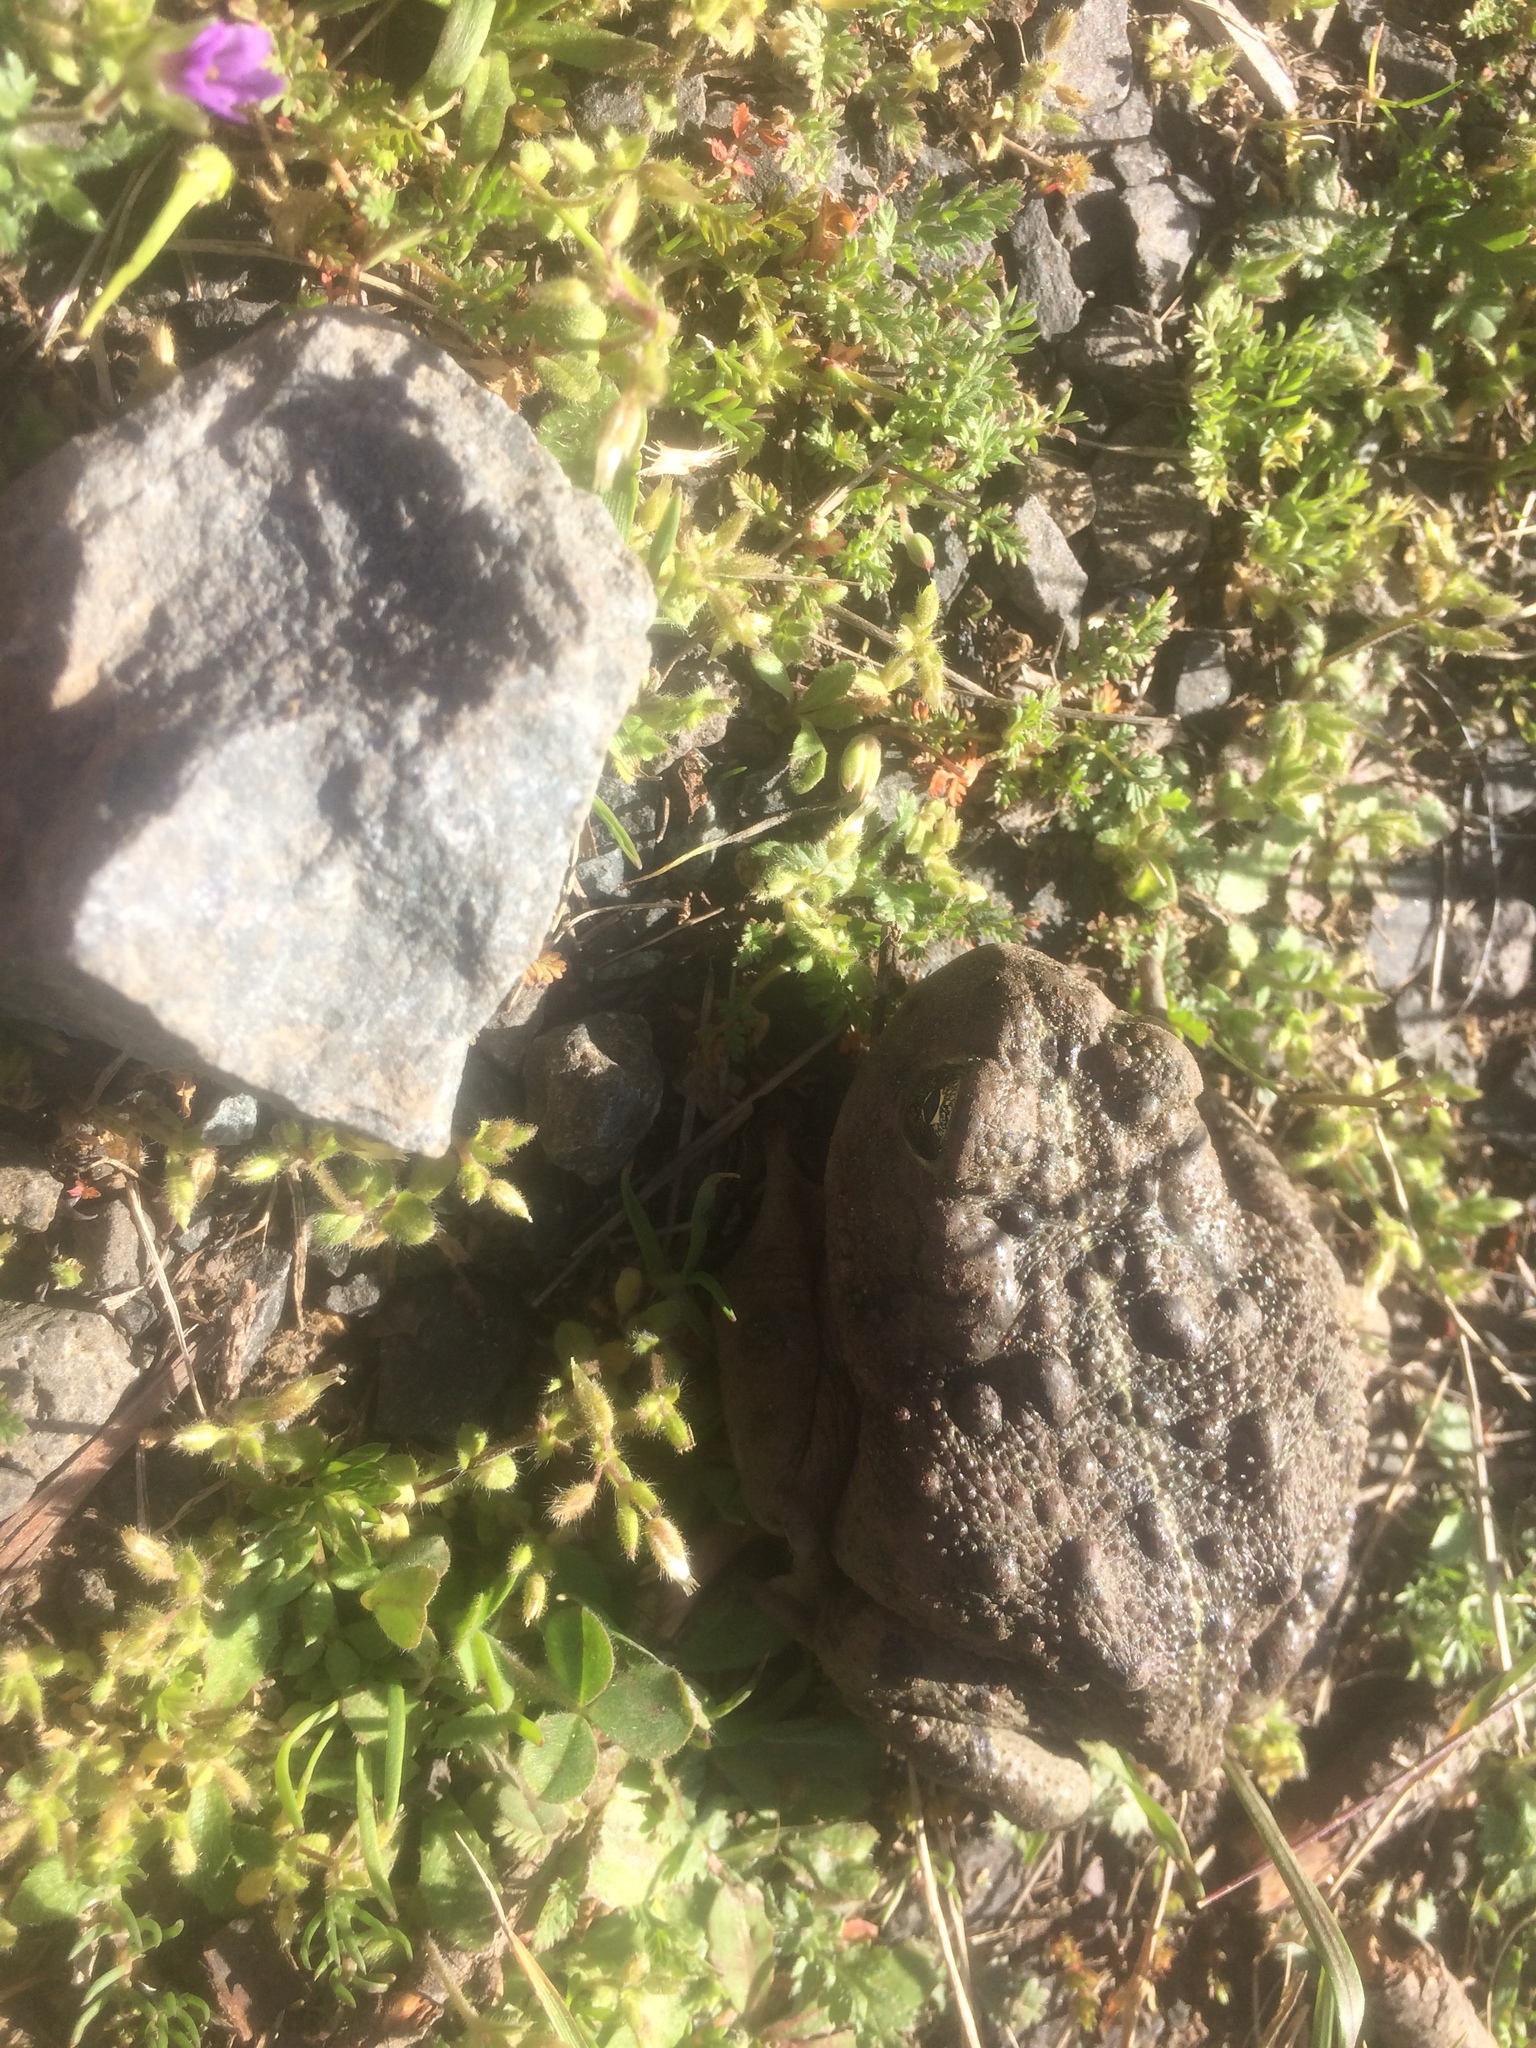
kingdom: Animalia
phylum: Chordata
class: Amphibia
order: Anura
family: Bufonidae
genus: Anaxyrus
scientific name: Anaxyrus boreas
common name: Western toad
